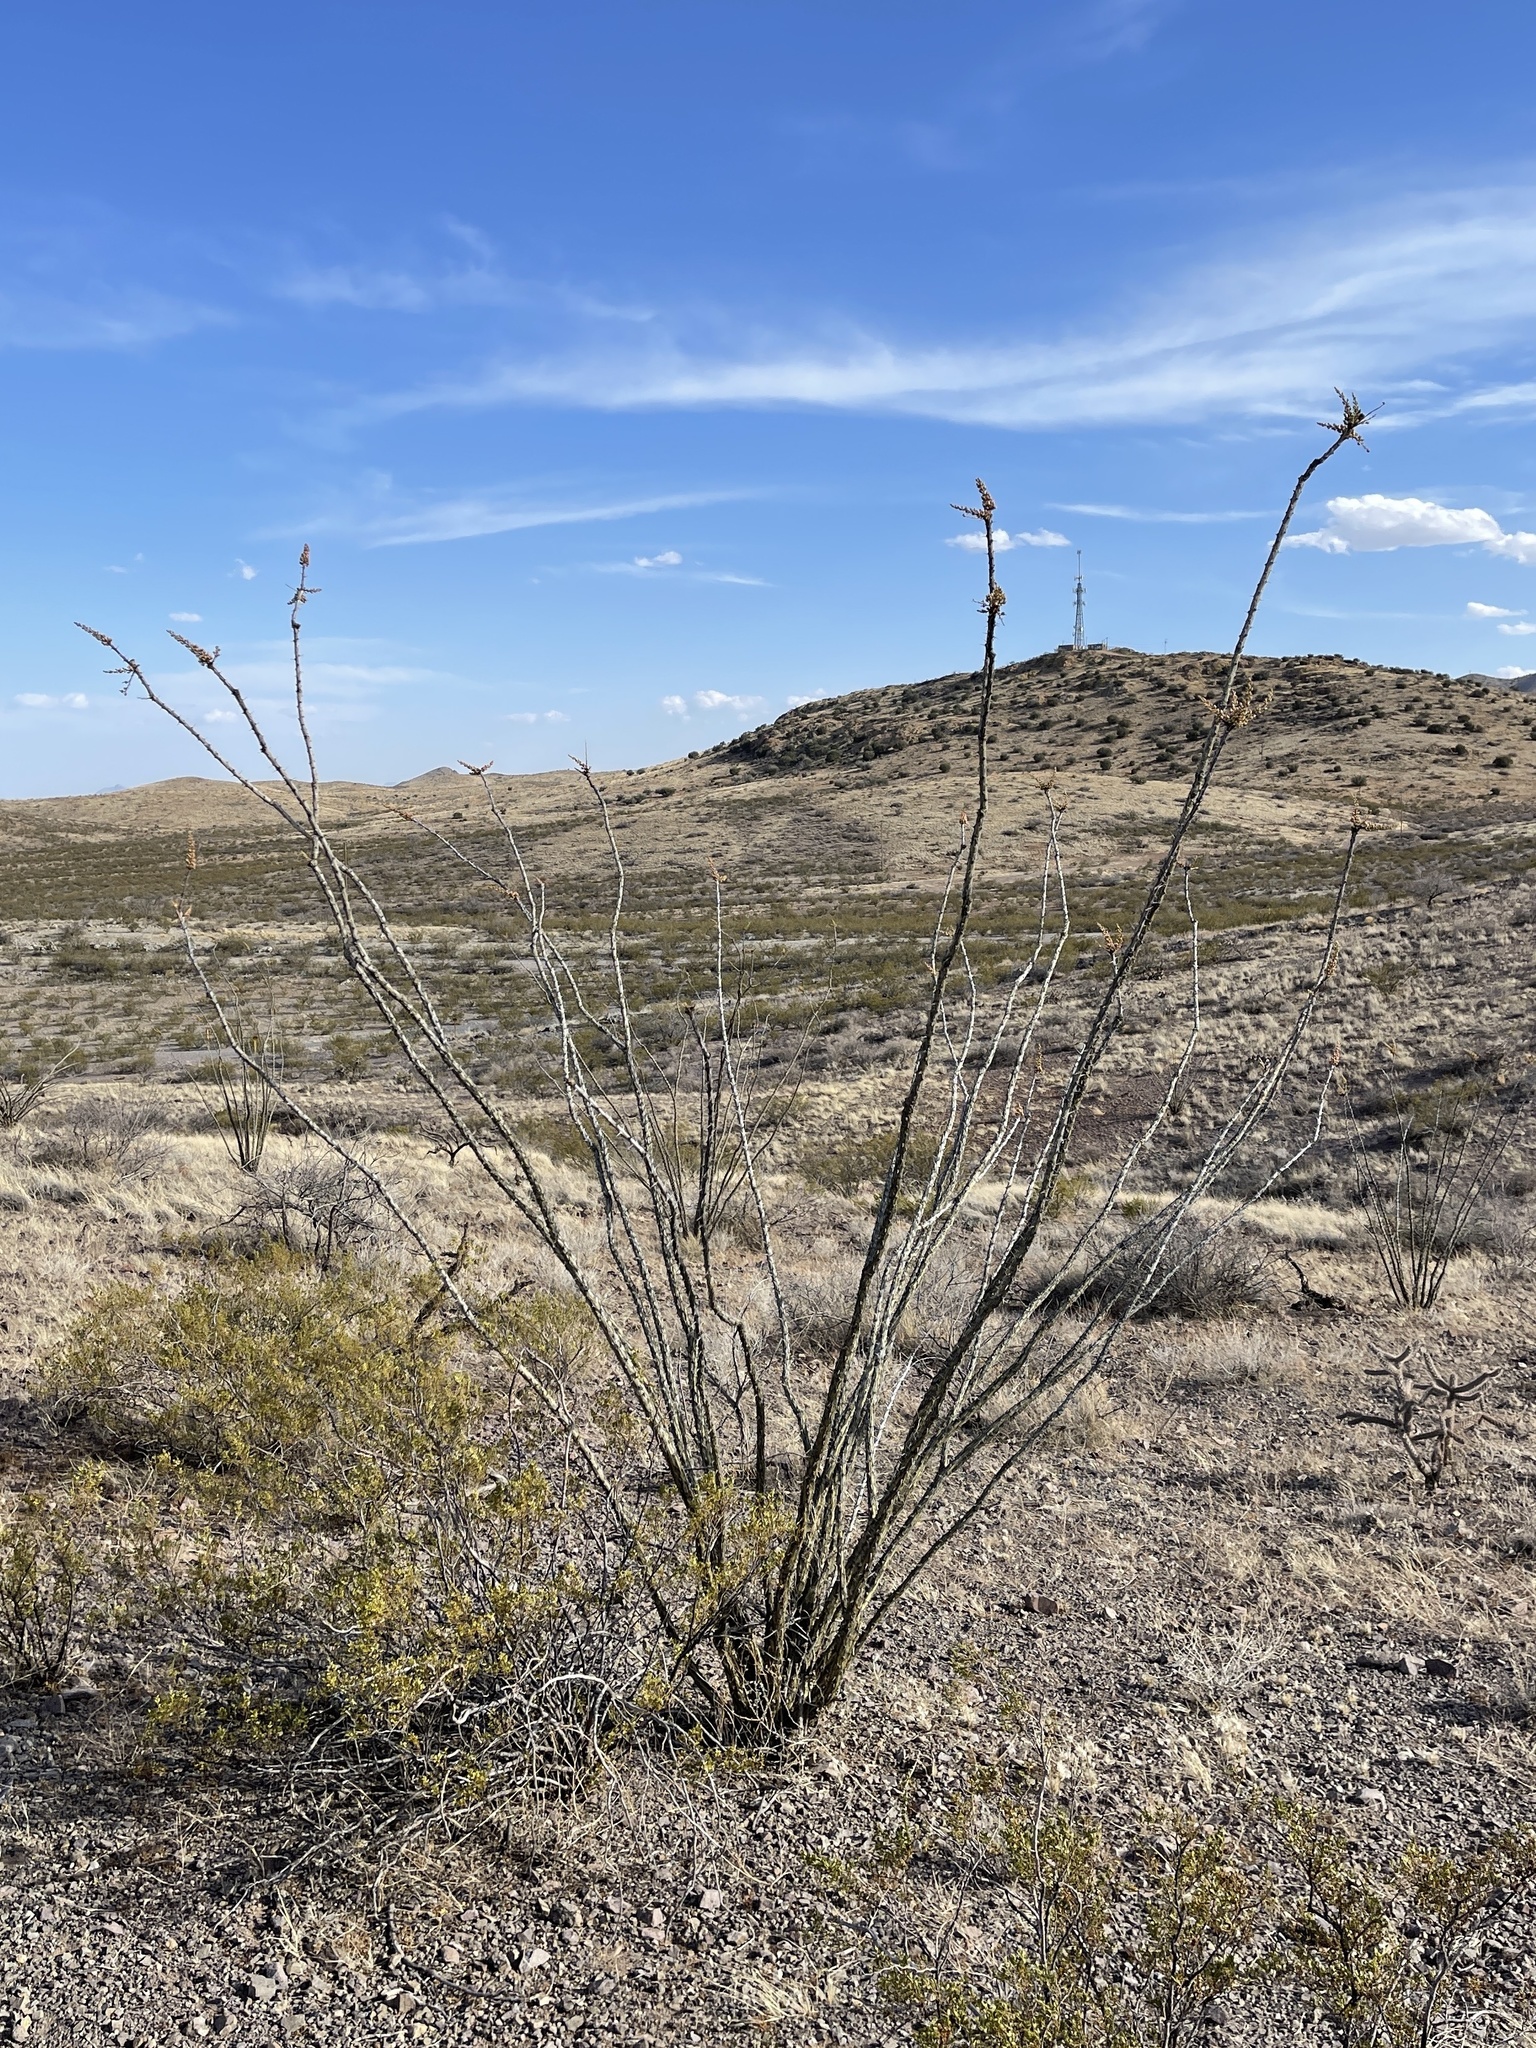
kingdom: Plantae
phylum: Tracheophyta
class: Magnoliopsida
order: Ericales
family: Fouquieriaceae
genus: Fouquieria
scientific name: Fouquieria splendens
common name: Vine-cactus
